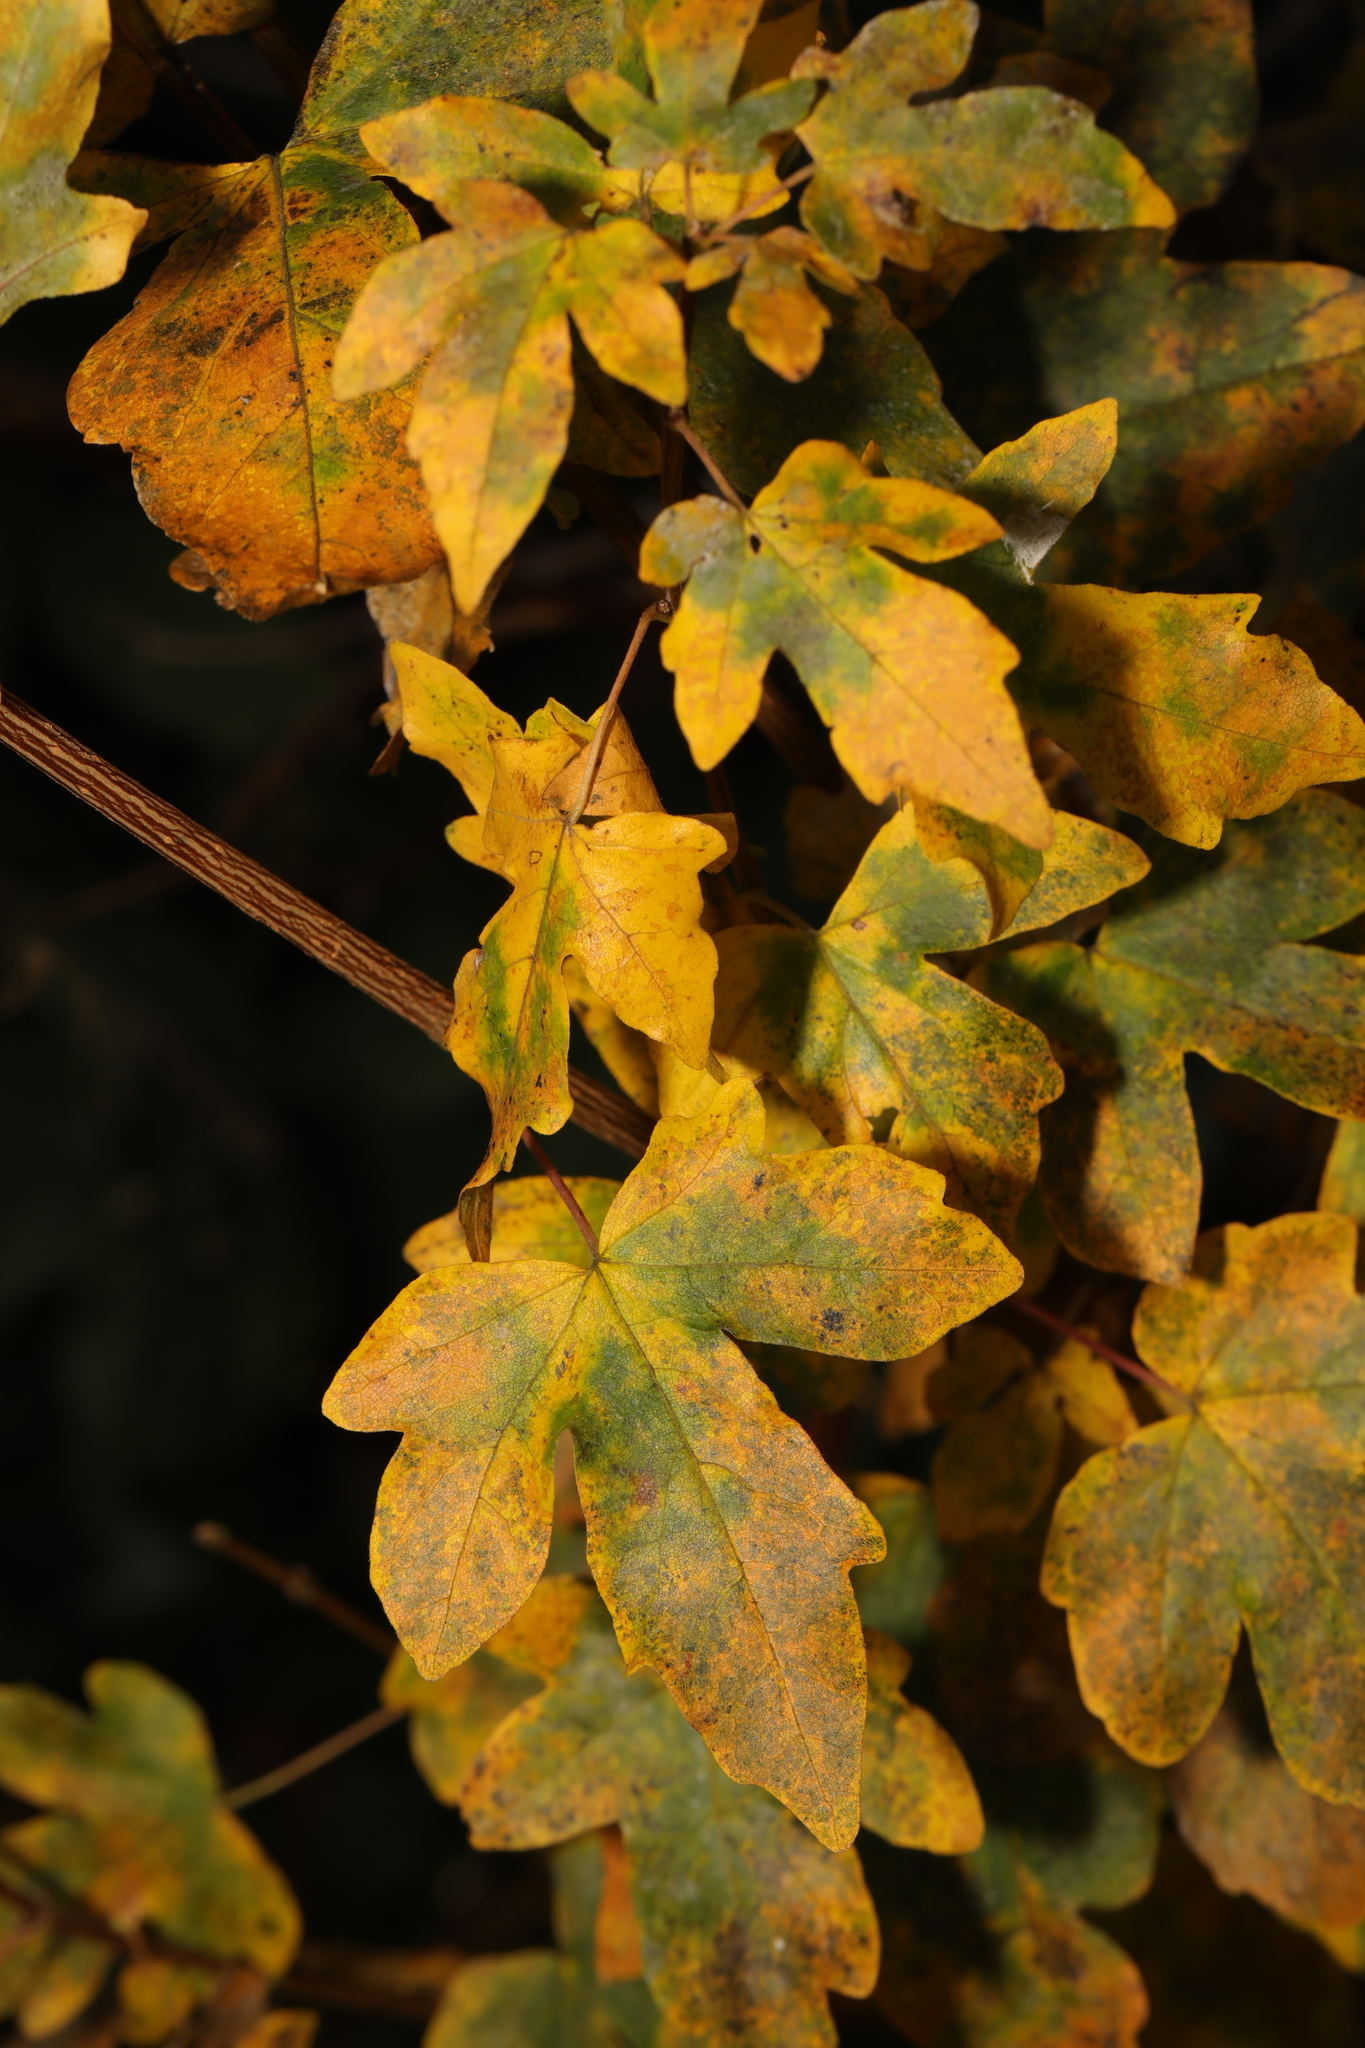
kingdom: Plantae
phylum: Tracheophyta
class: Magnoliopsida
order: Sapindales
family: Sapindaceae
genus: Acer
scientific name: Acer campestre
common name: Field maple
